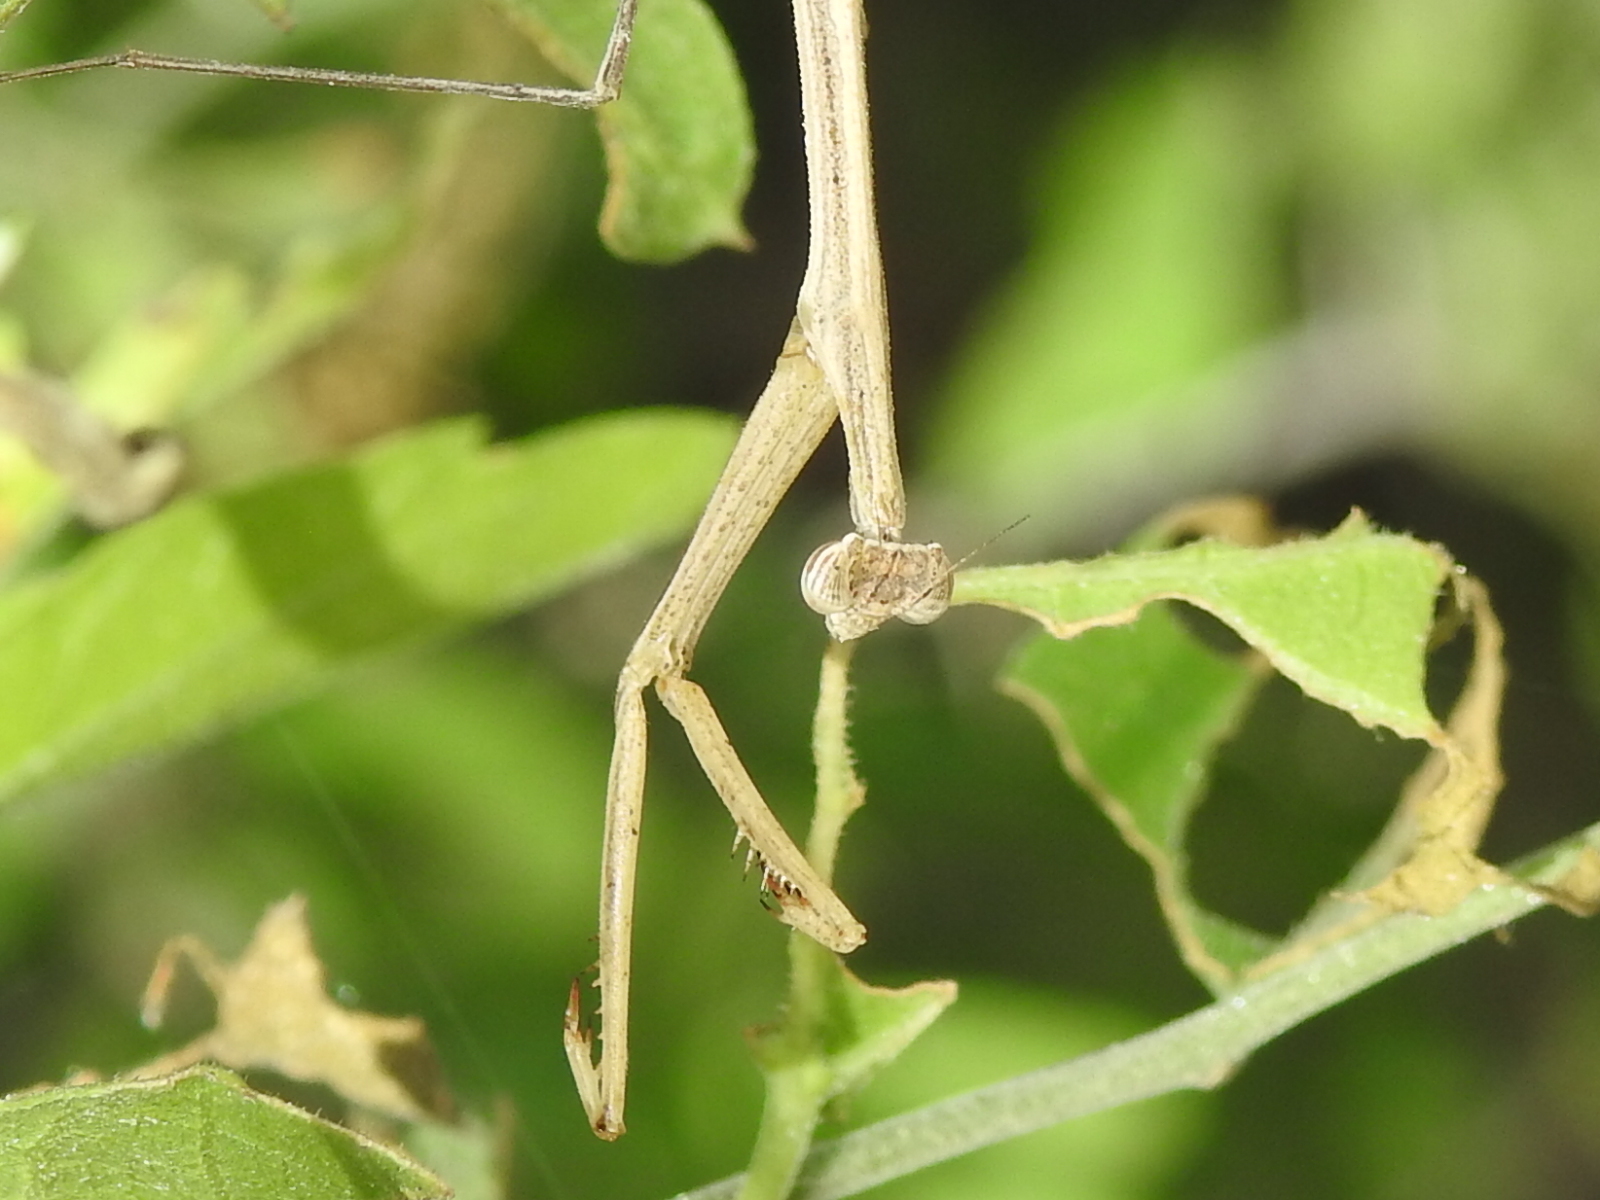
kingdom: Animalia
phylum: Arthropoda
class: Insecta
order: Mantodea
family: Thespidae
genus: Bistanta
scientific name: Bistanta mexicana
